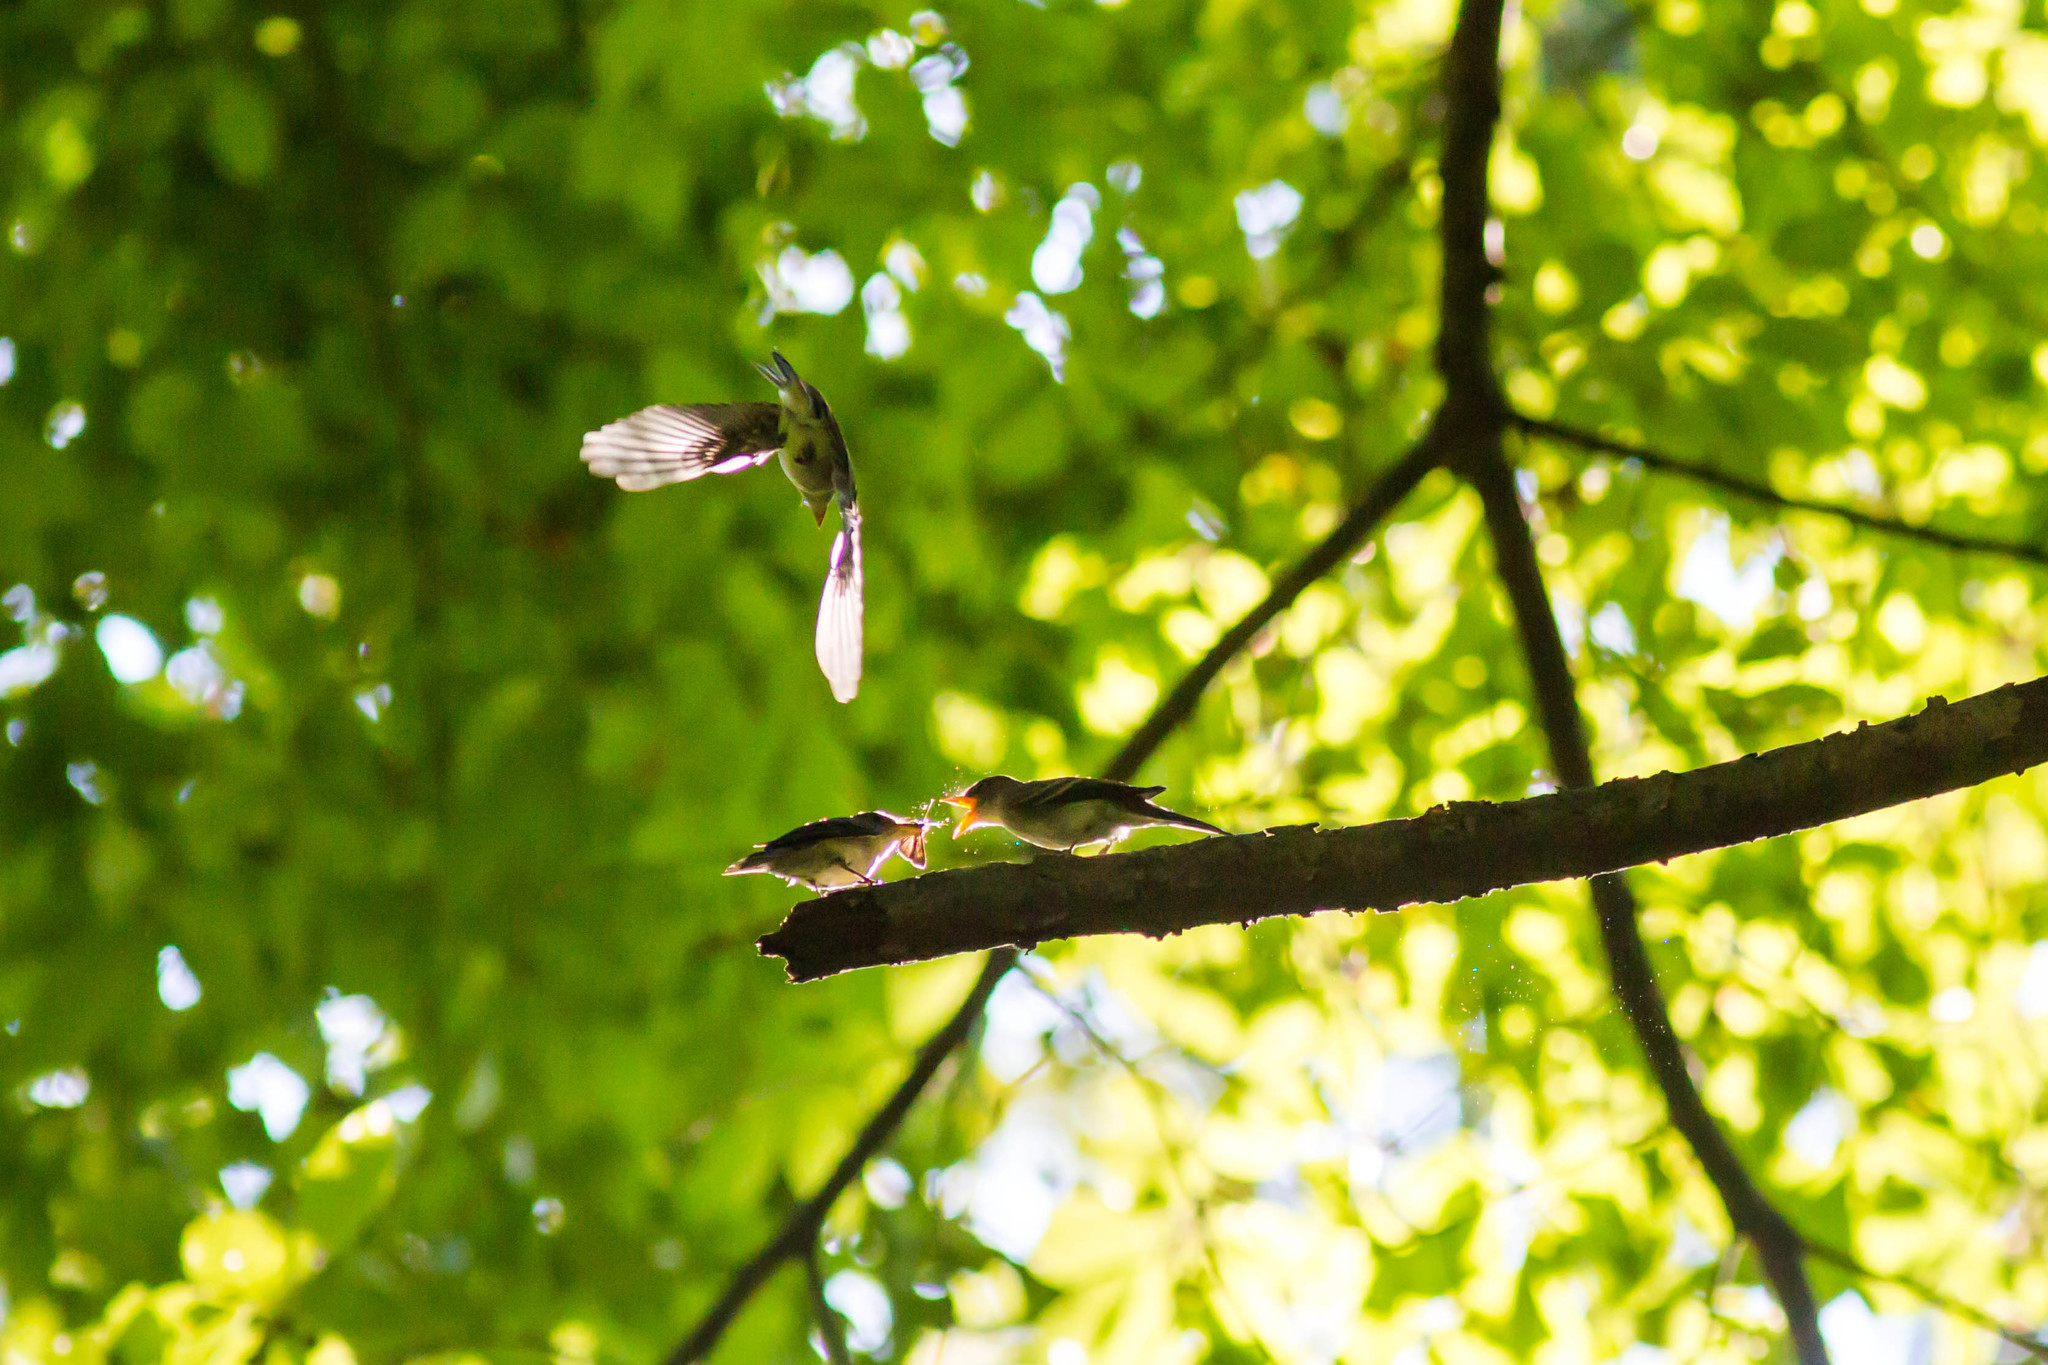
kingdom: Animalia
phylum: Chordata
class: Aves
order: Passeriformes
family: Tyrannidae
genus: Contopus
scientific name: Contopus virens
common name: Eastern wood-pewee
